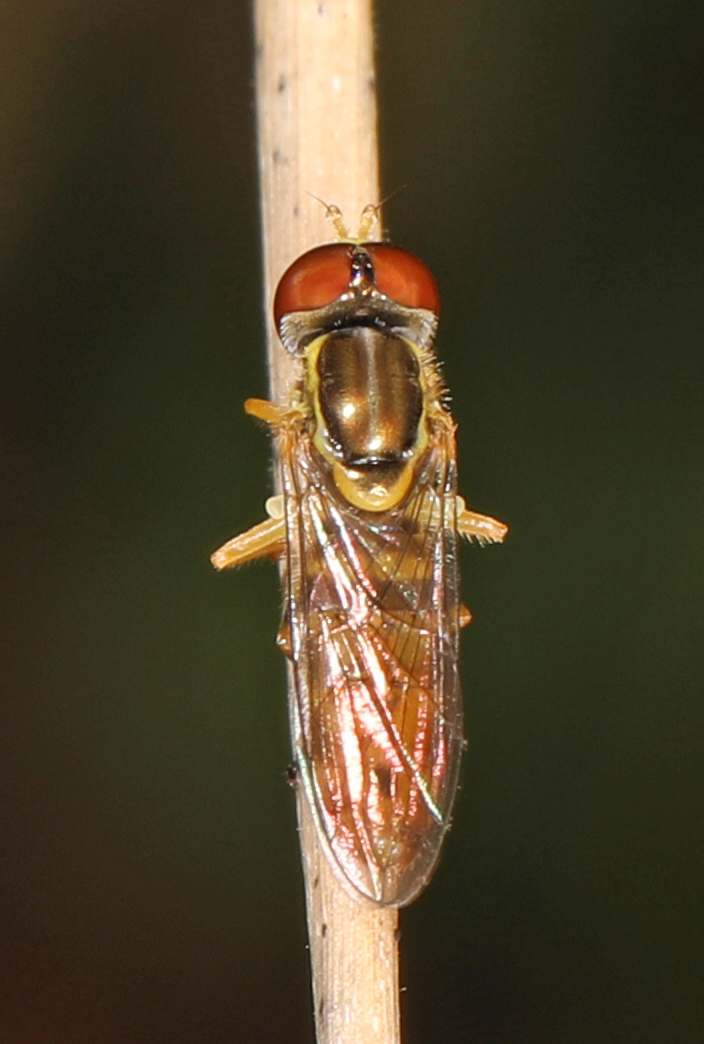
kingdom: Animalia
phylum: Arthropoda
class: Insecta
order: Diptera
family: Syrphidae
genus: Toxomerus
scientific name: Toxomerus floralis
